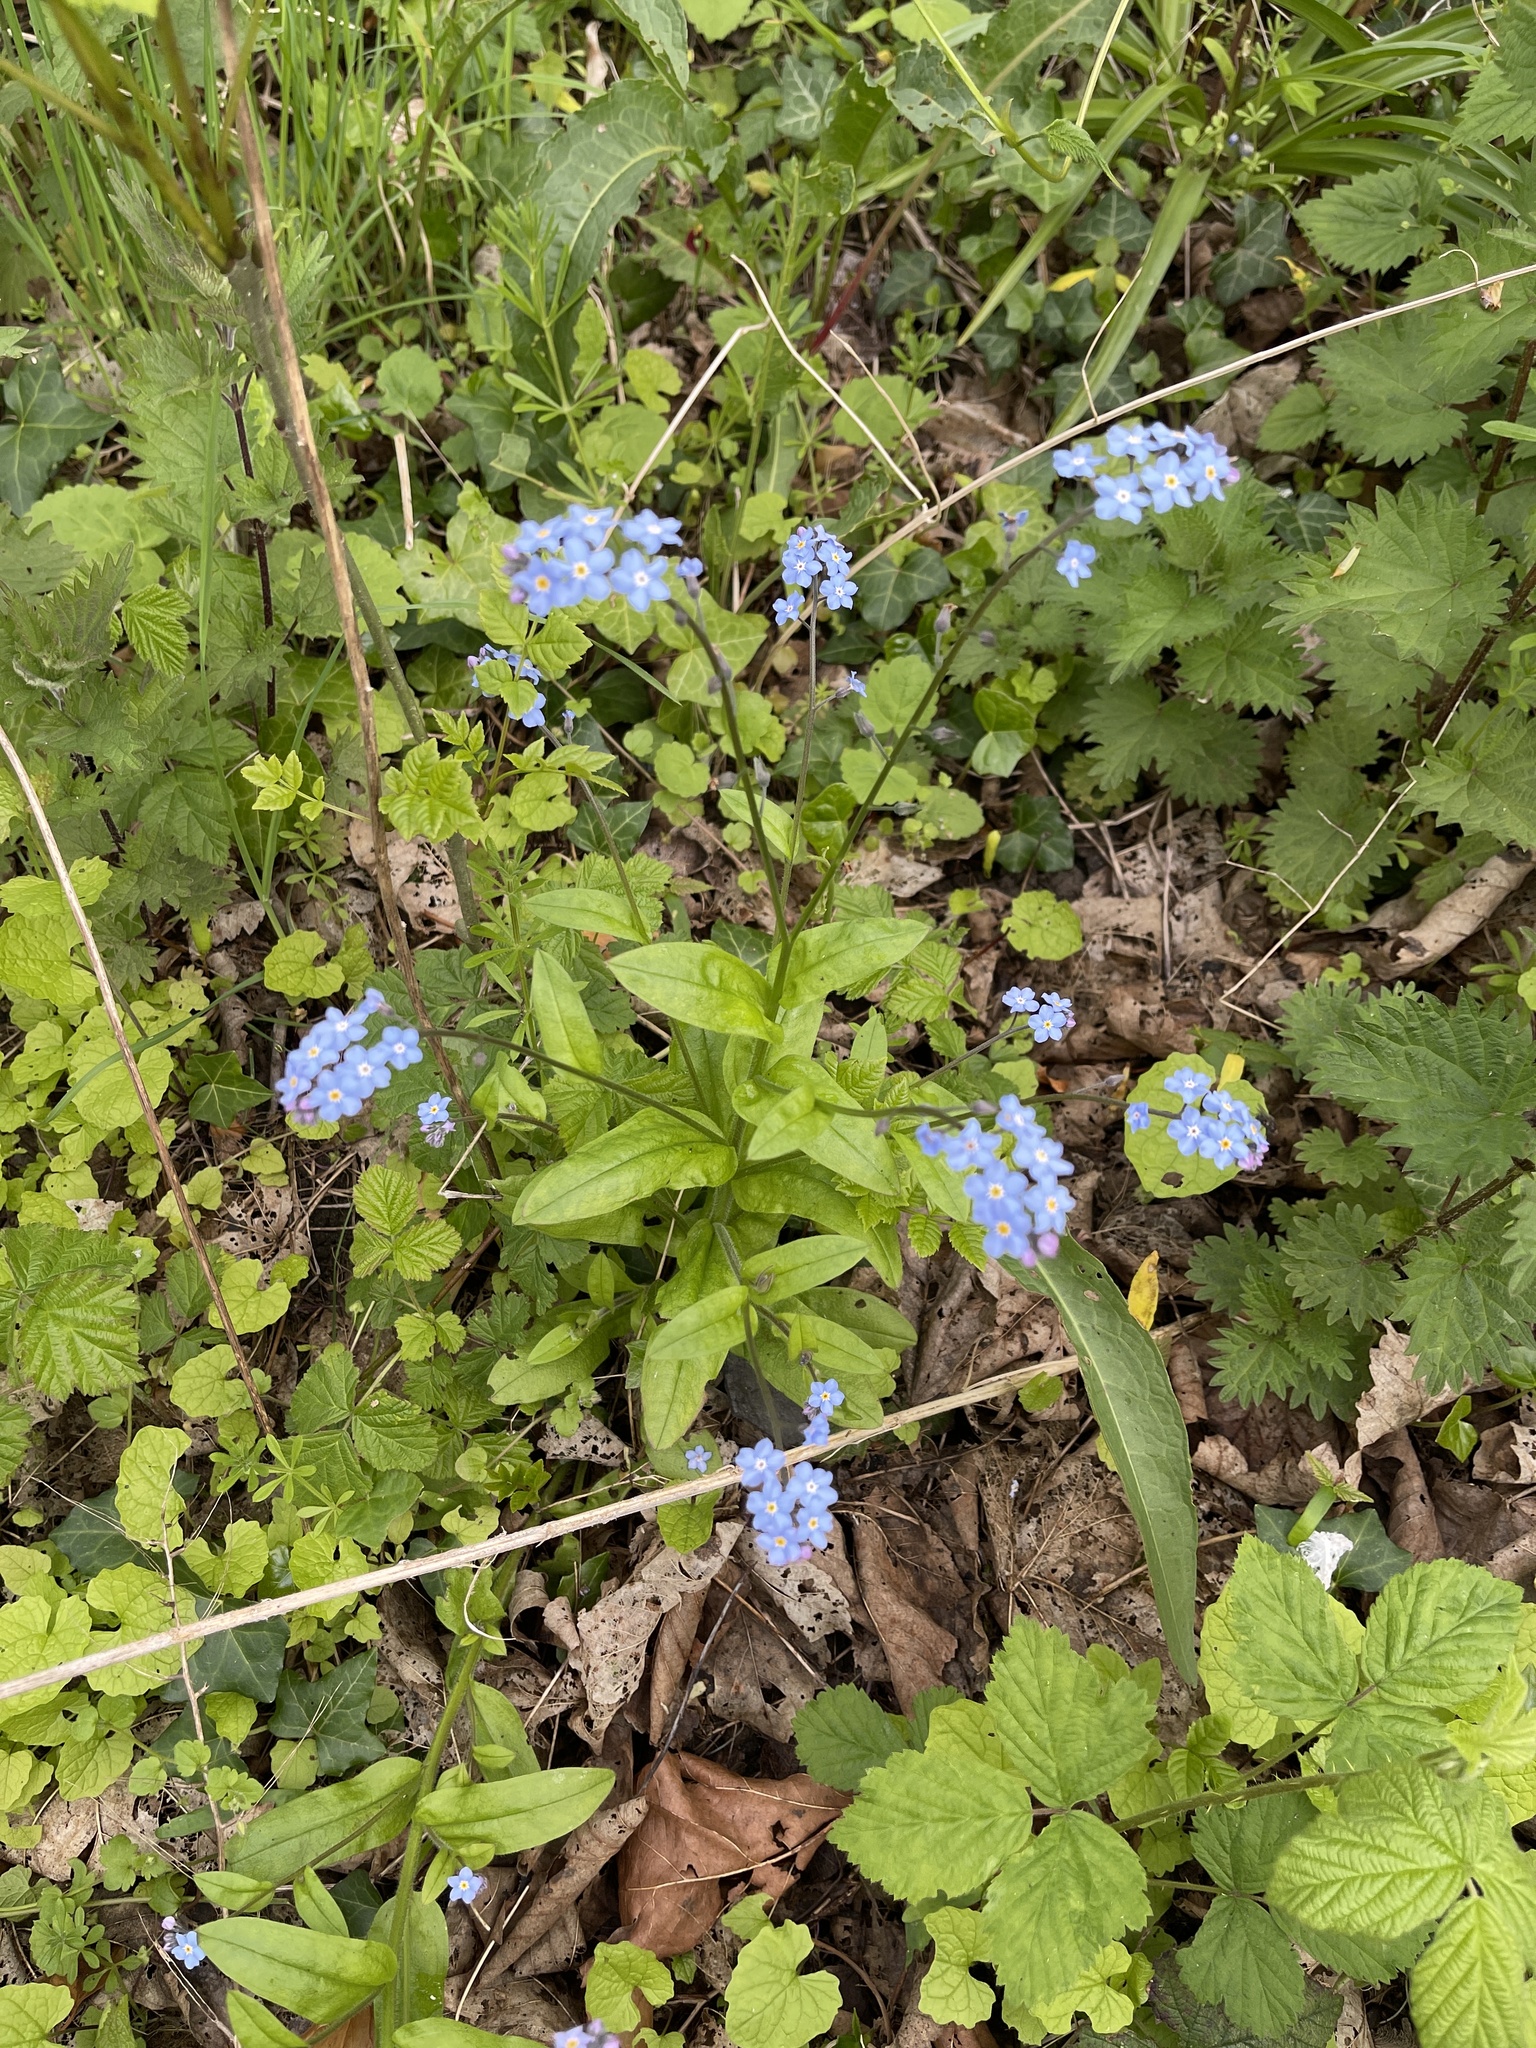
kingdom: Plantae
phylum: Tracheophyta
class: Magnoliopsida
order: Boraginales
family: Boraginaceae
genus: Myosotis
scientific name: Myosotis sylvatica
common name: Wood forget-me-not
